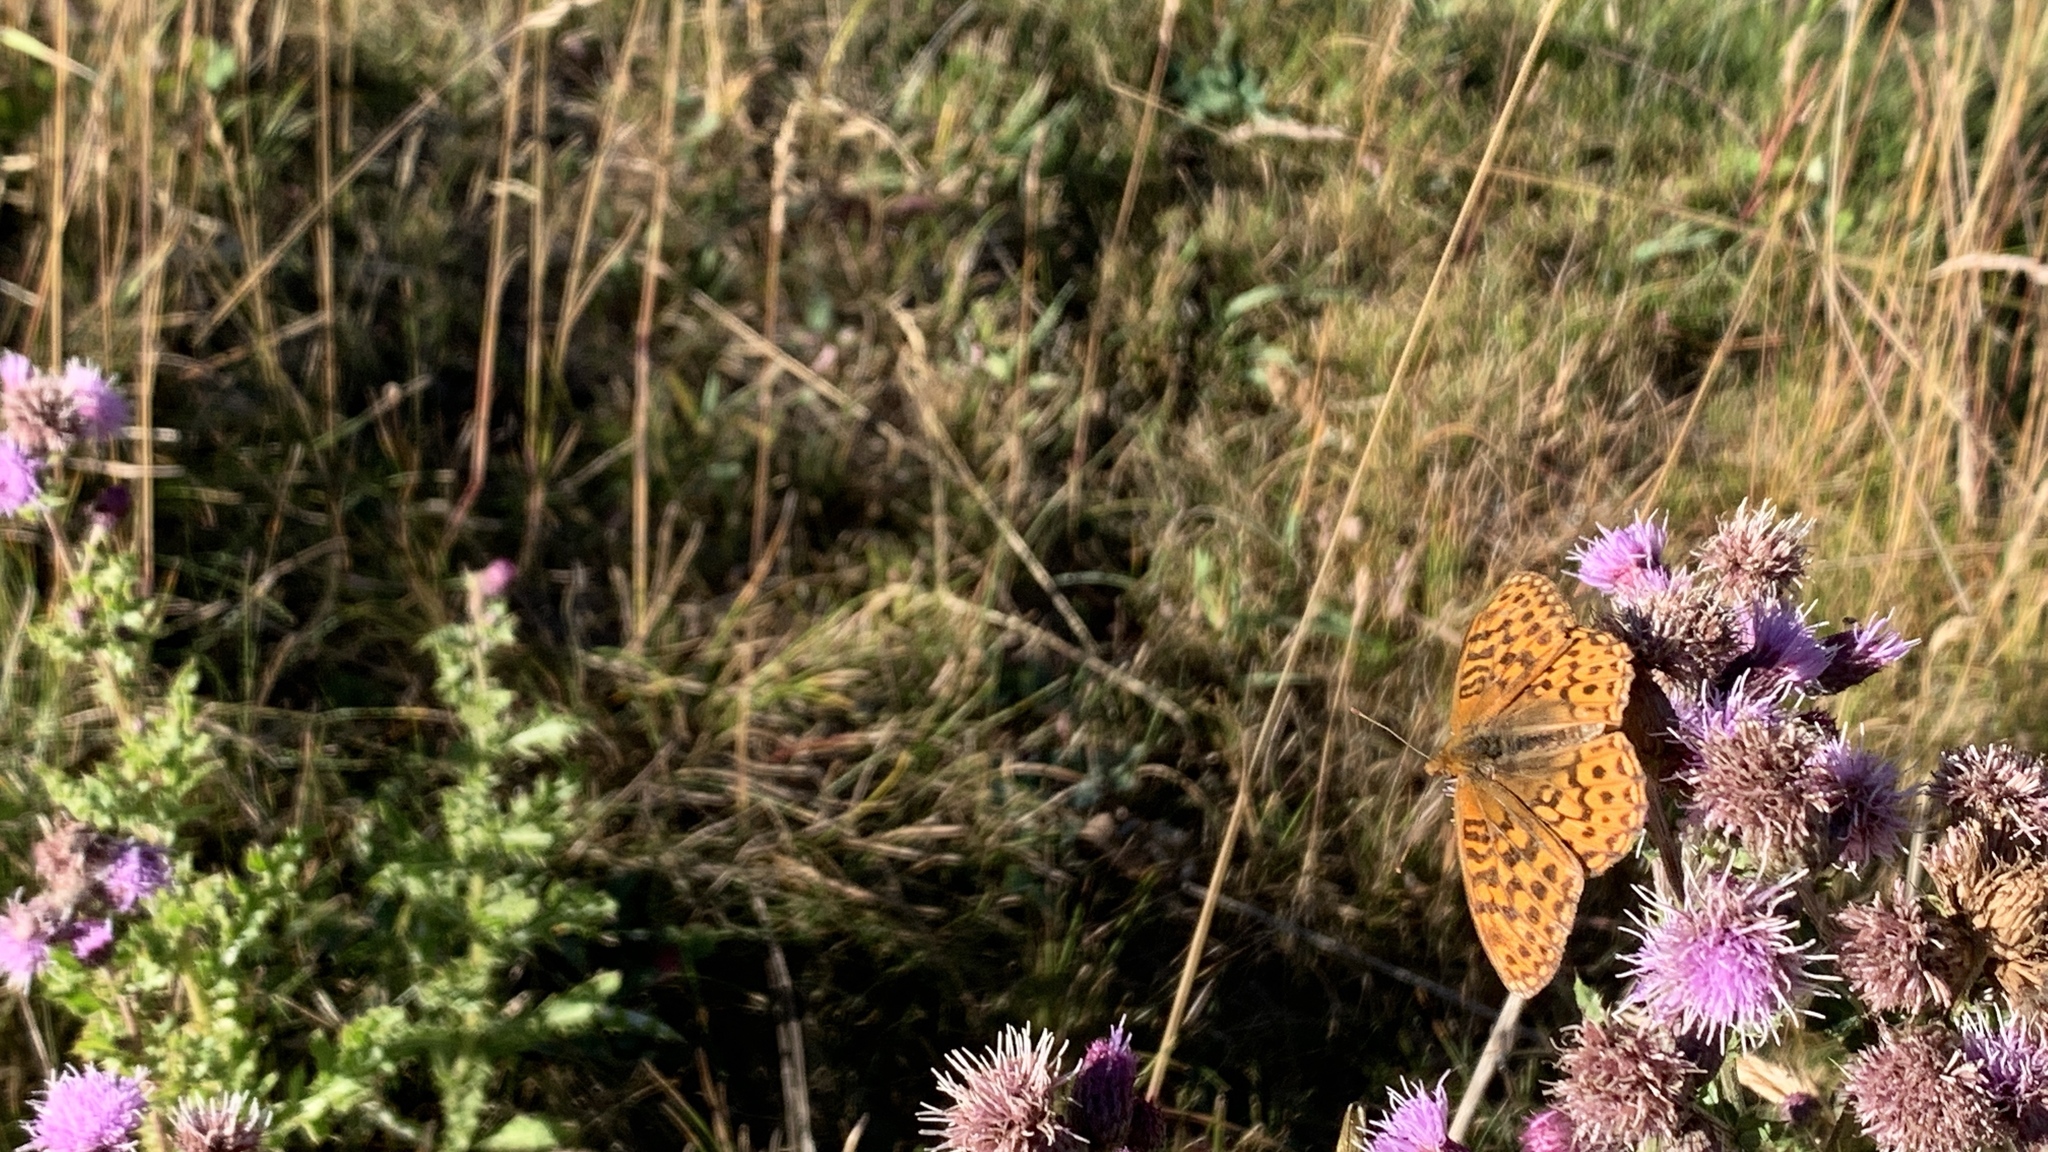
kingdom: Animalia
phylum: Arthropoda
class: Insecta
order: Lepidoptera
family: Nymphalidae
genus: Speyeria
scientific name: Speyeria atlantis
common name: Atlantis fritillary
